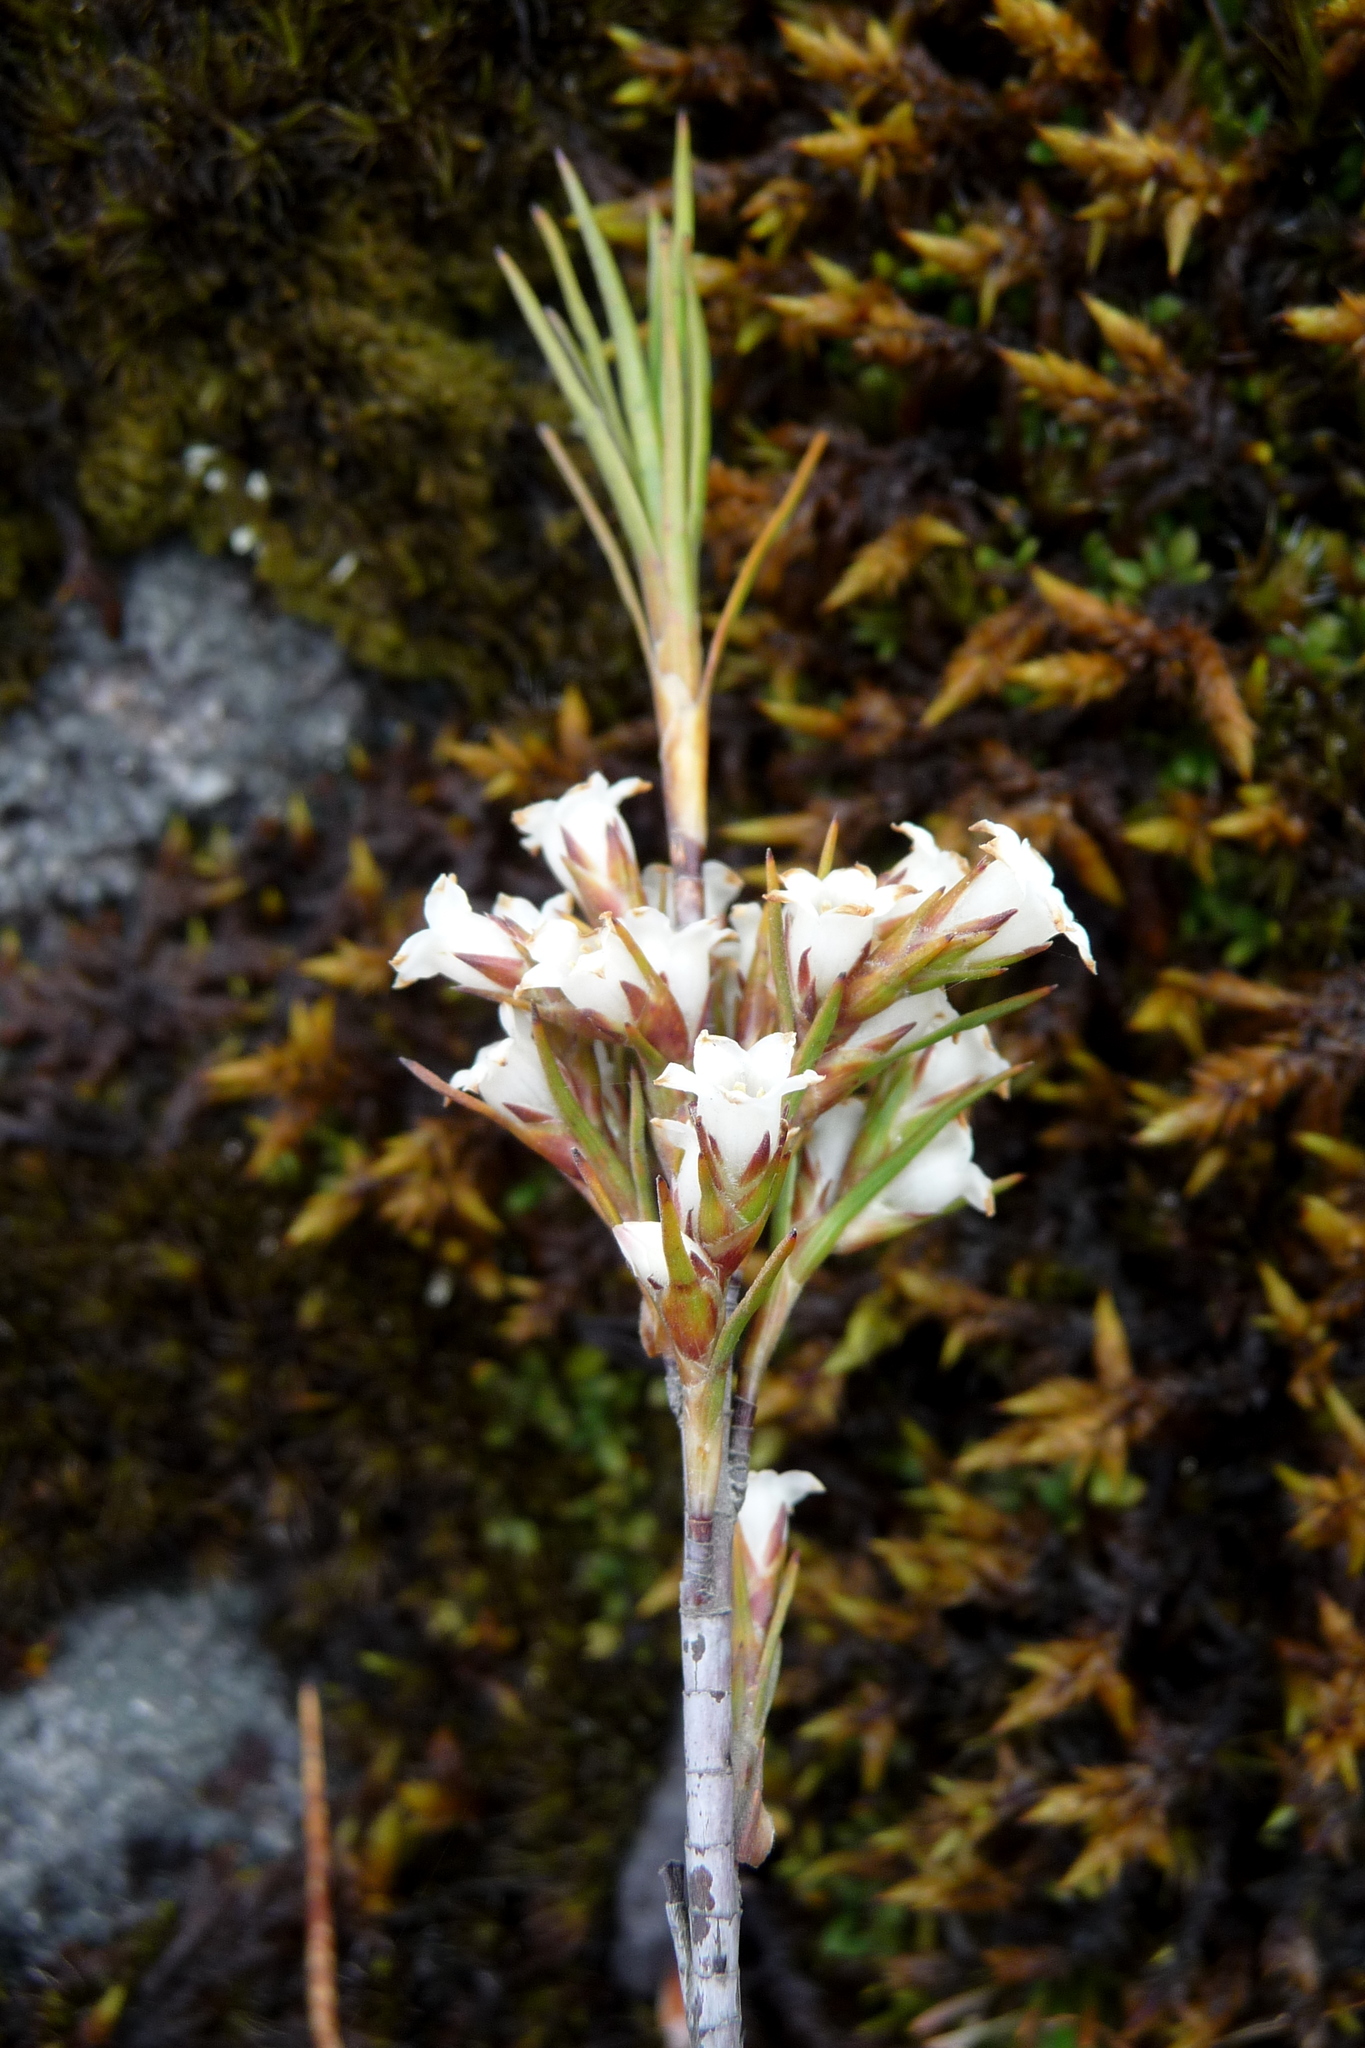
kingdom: Plantae
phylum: Tracheophyta
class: Magnoliopsida
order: Ericales
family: Ericaceae
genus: Dracophyllum
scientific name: Dracophyllum
